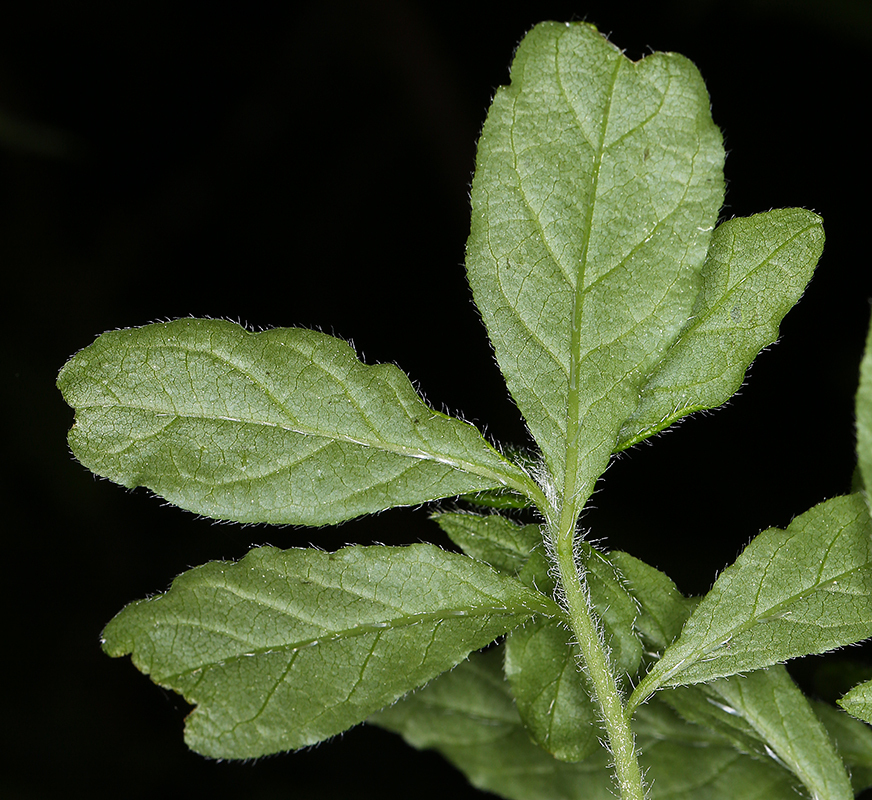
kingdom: Plantae
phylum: Tracheophyta
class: Magnoliopsida
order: Ericales
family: Ericaceae
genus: Rhododendron
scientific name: Rhododendron menziesii
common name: Pacific menziesia
